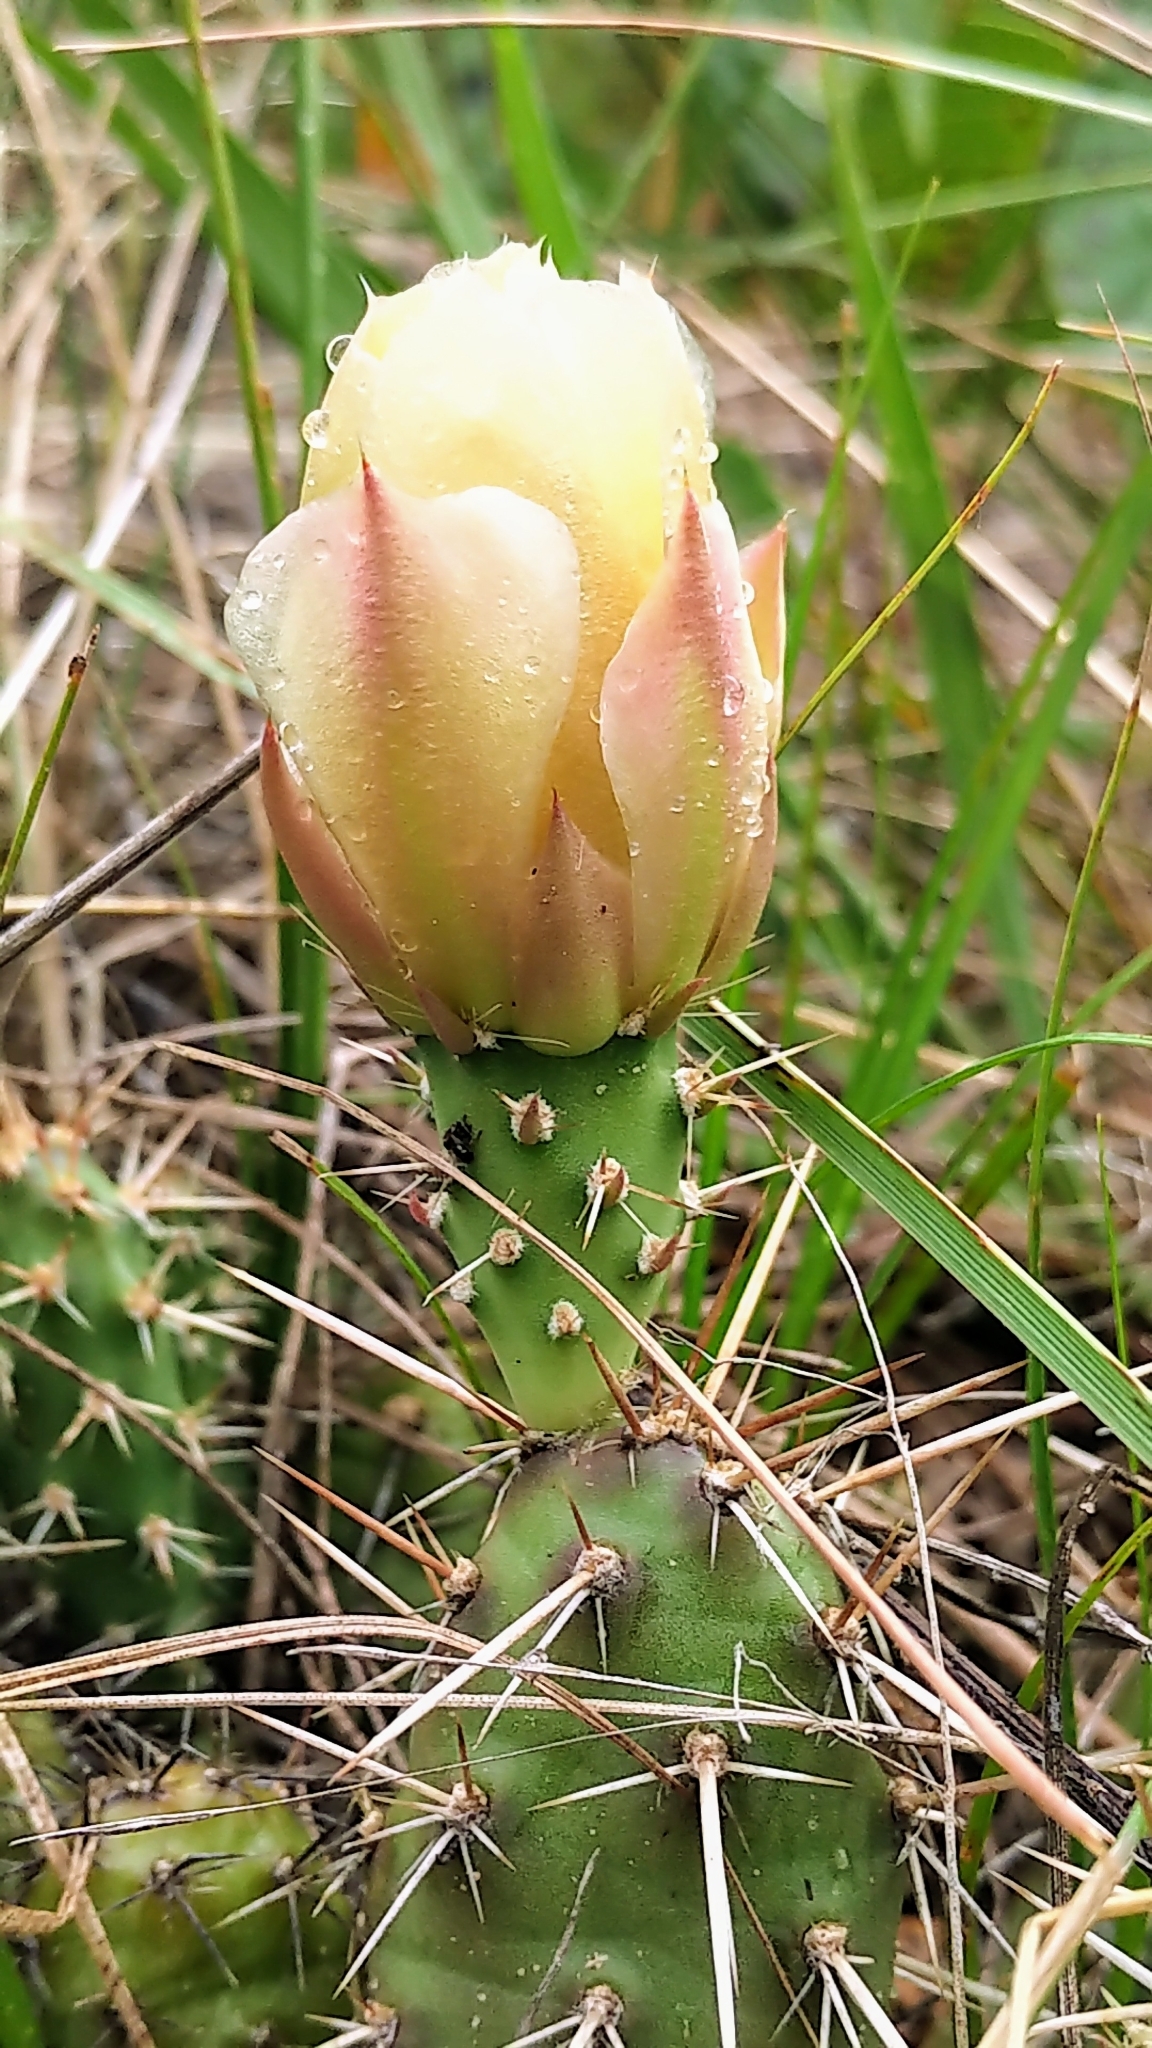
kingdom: Plantae
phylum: Tracheophyta
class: Magnoliopsida
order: Caryophyllales
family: Cactaceae
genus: Opuntia
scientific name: Opuntia fragilis
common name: Brittle cactus
